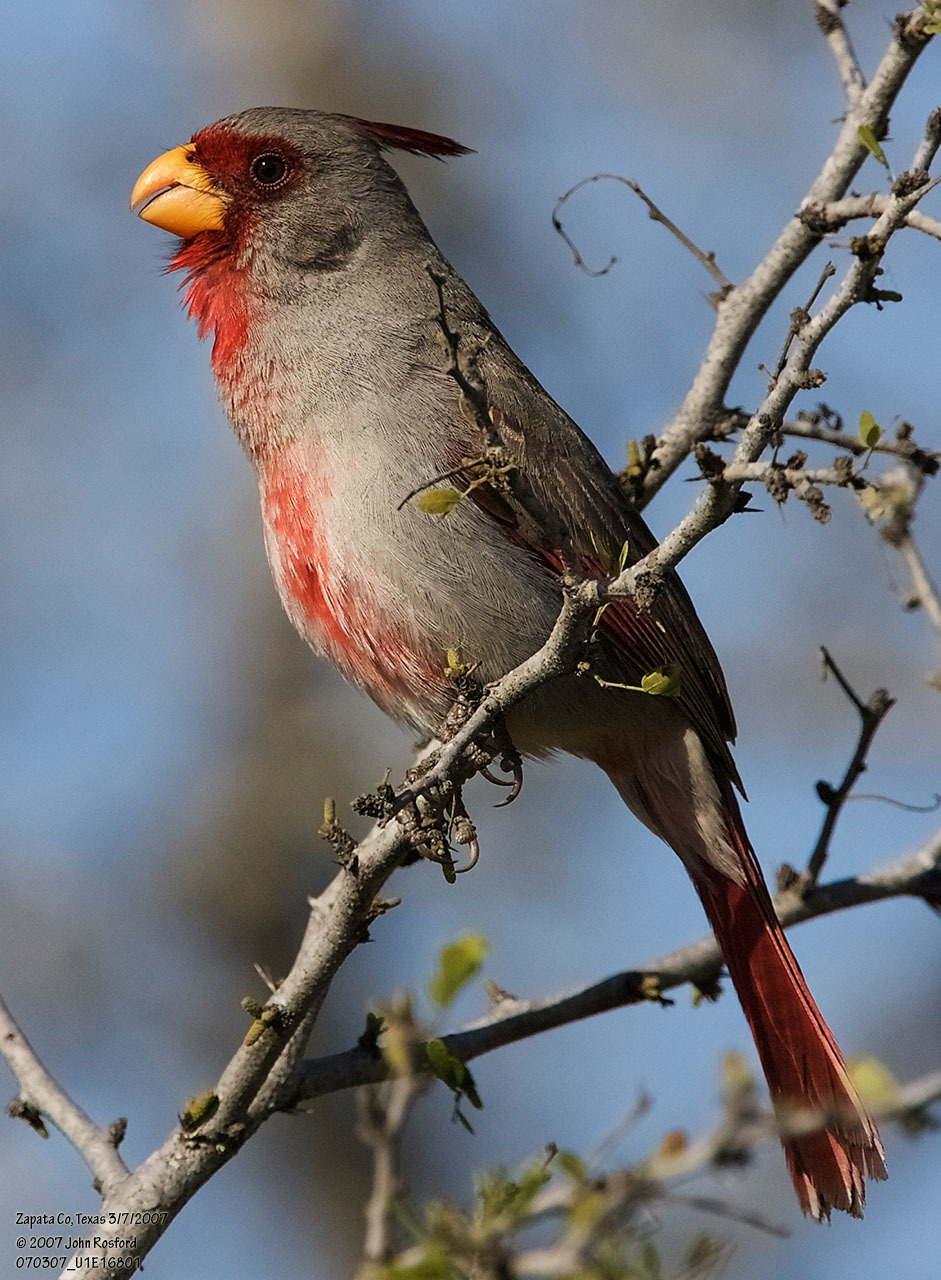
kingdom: Animalia
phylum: Chordata
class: Aves
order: Passeriformes
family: Cardinalidae
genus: Cardinalis
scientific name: Cardinalis sinuatus
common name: Pyrrhuloxia
